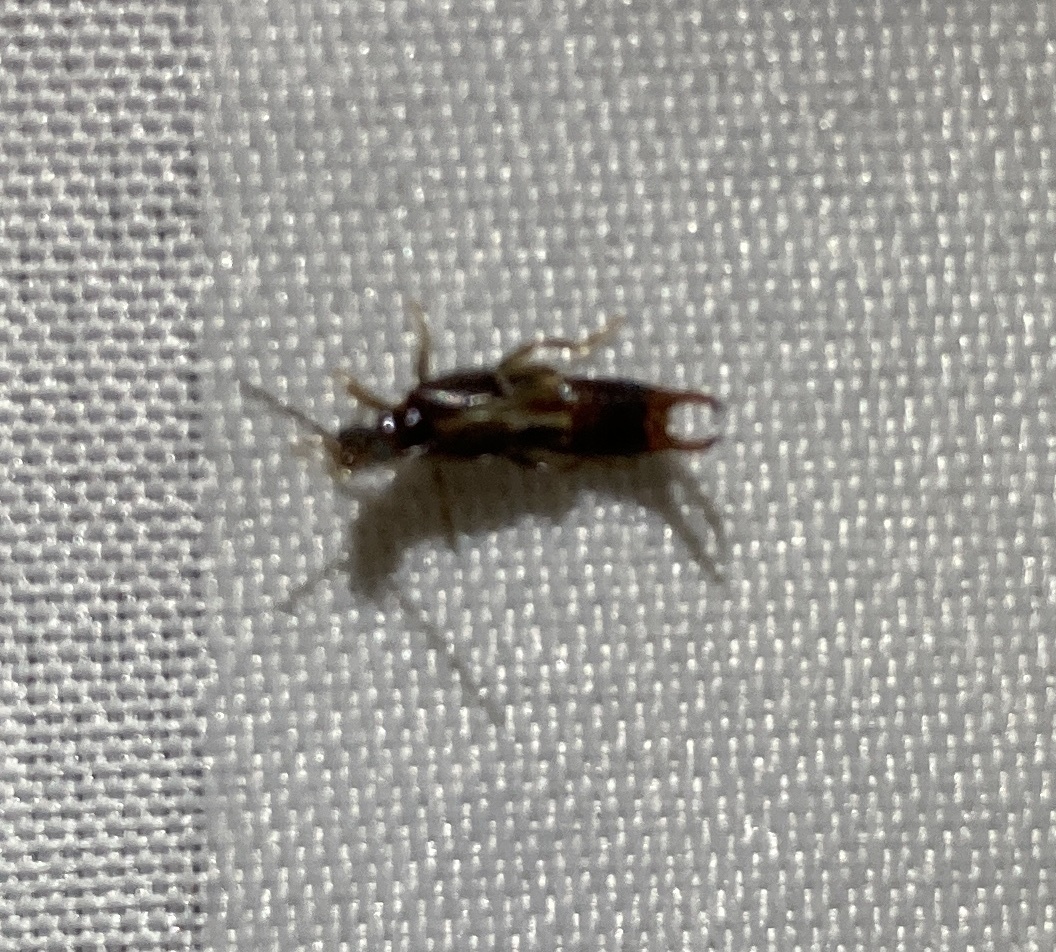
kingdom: Animalia
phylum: Arthropoda
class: Insecta
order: Dermaptera
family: Spongiphoridae
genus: Nesogaster
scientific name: Nesogaster halli
